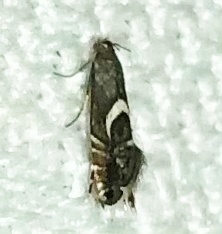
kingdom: Animalia
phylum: Arthropoda
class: Insecta
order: Lepidoptera
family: Glyphipterigidae
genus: Glyphipterix
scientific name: Glyphipterix Diploschizia impigritella
